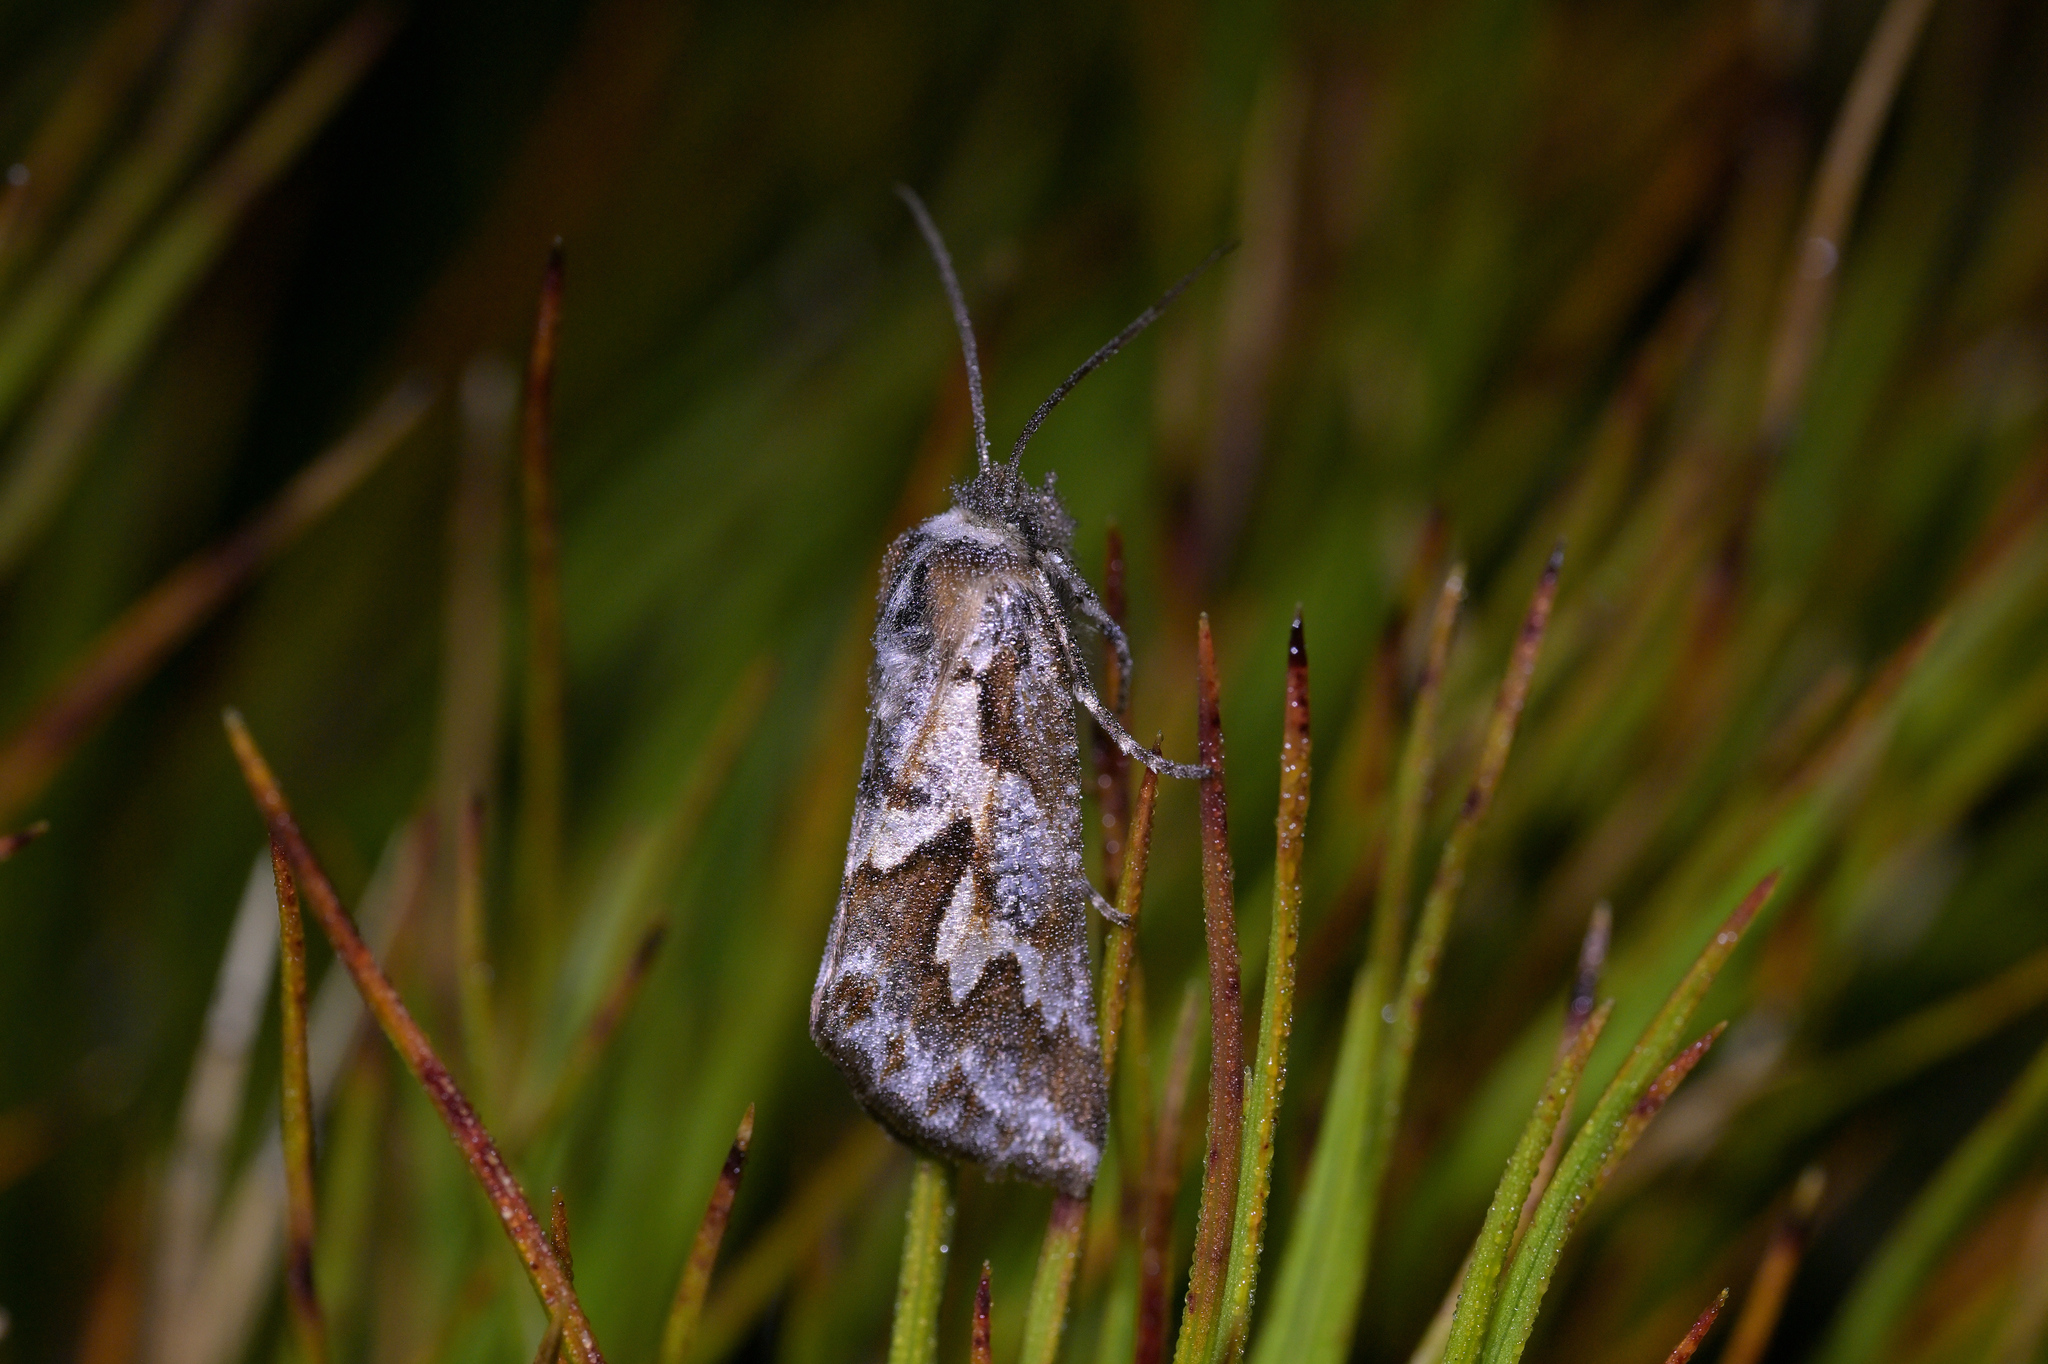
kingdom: Animalia
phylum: Arthropoda
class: Insecta
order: Lepidoptera
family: Geometridae
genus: Declana
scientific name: Declana
